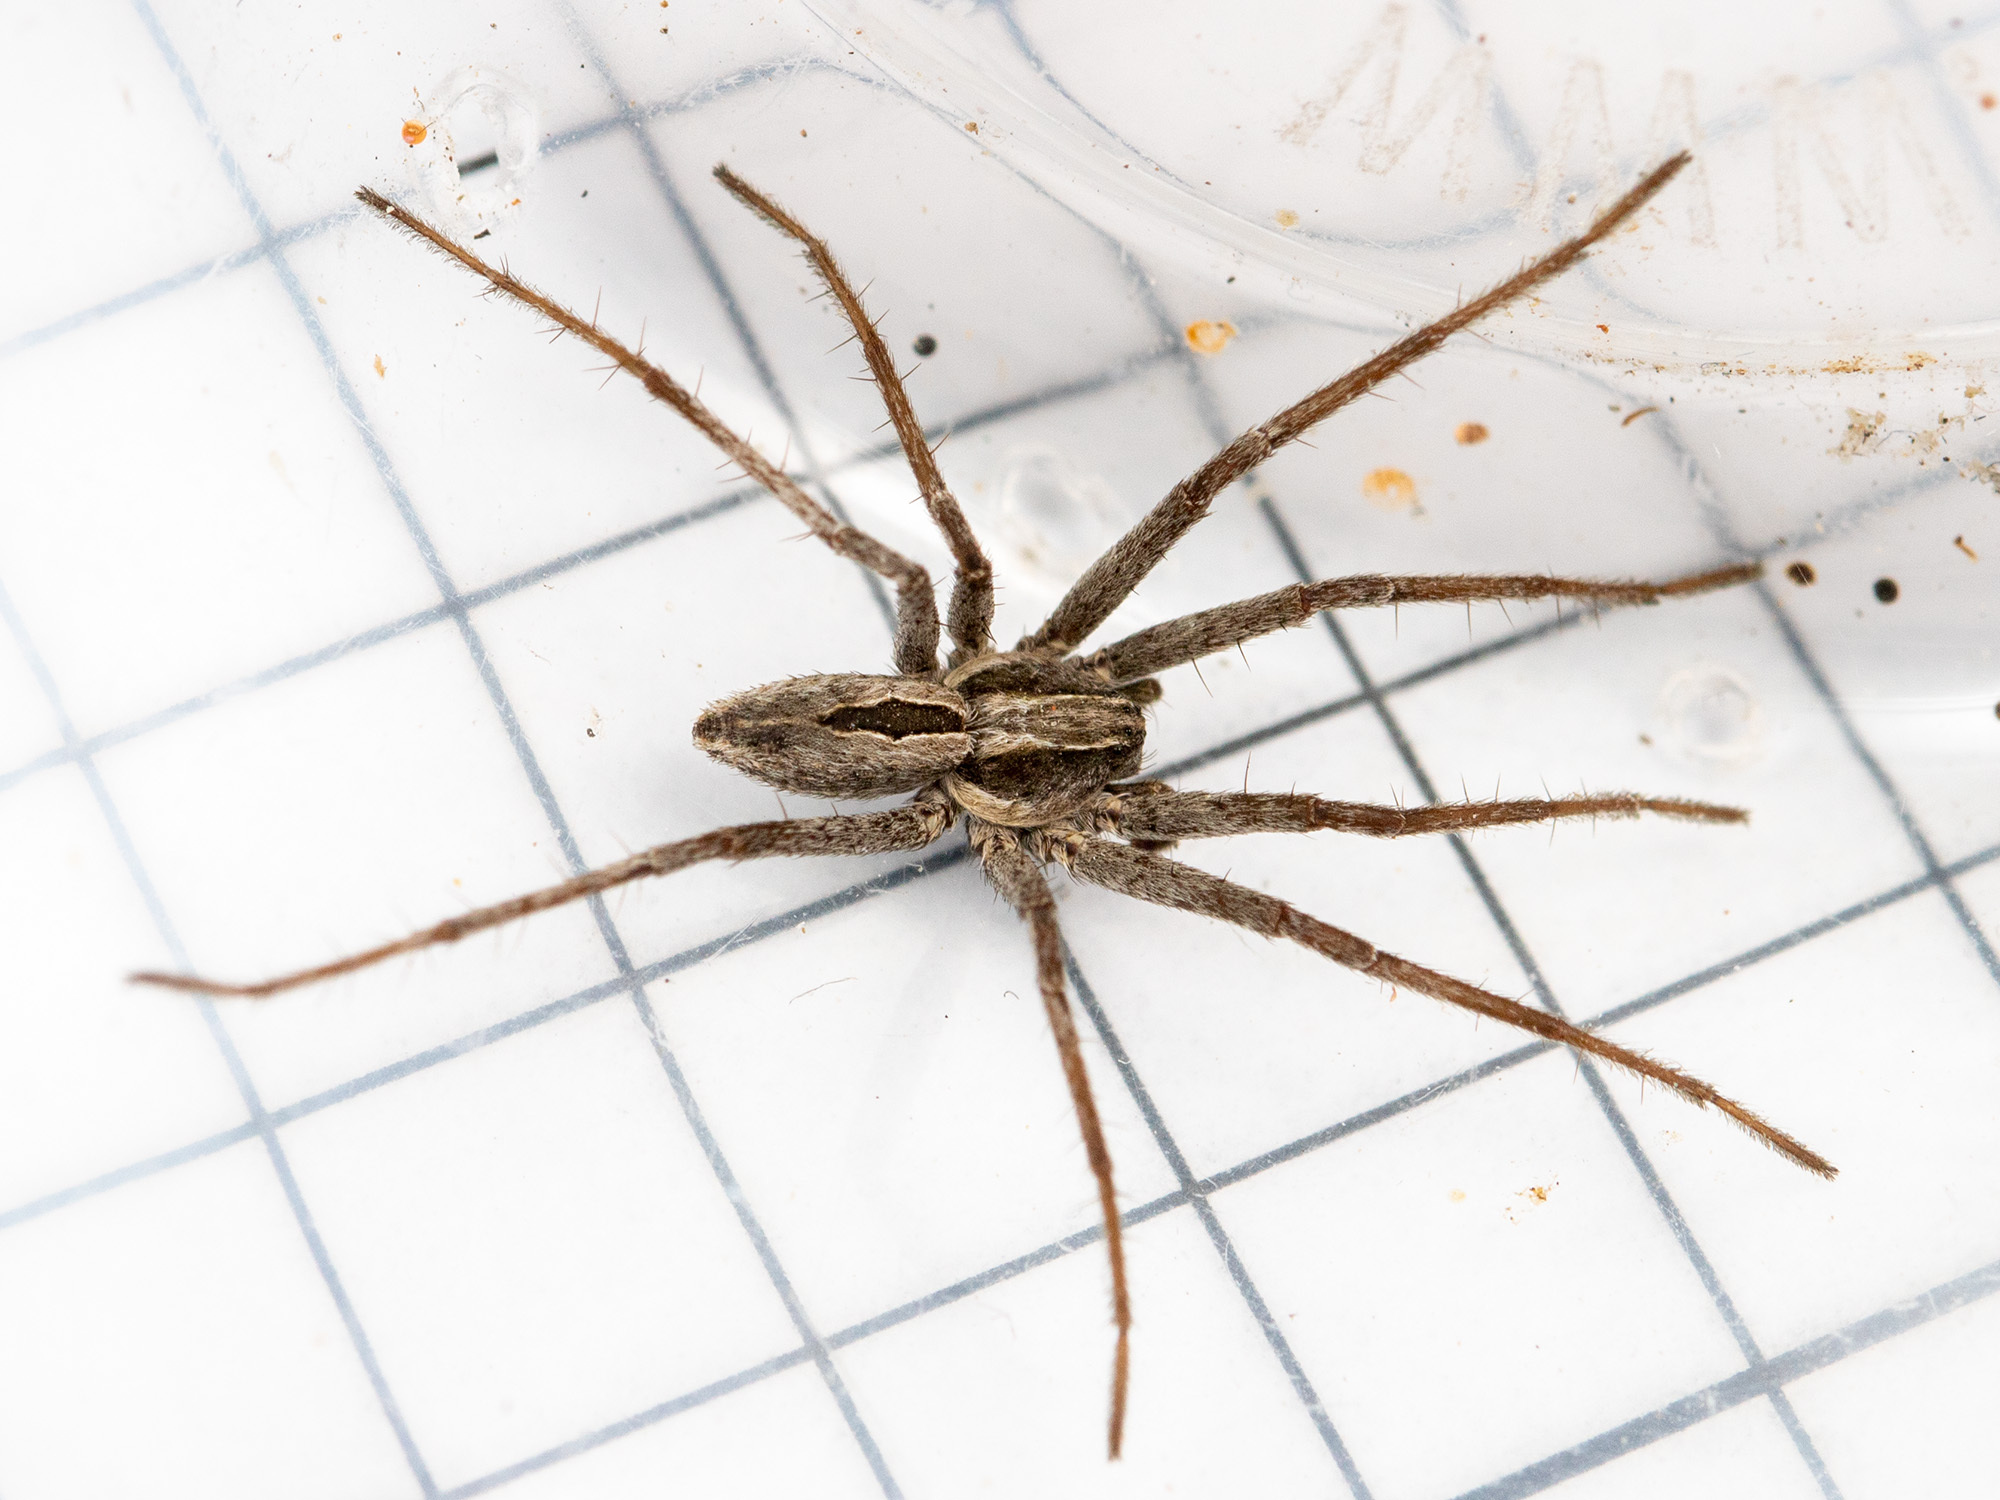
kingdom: Animalia
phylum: Arthropoda
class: Arachnida
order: Araneae
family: Philodromidae
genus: Thanatus
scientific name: Thanatus pictus
